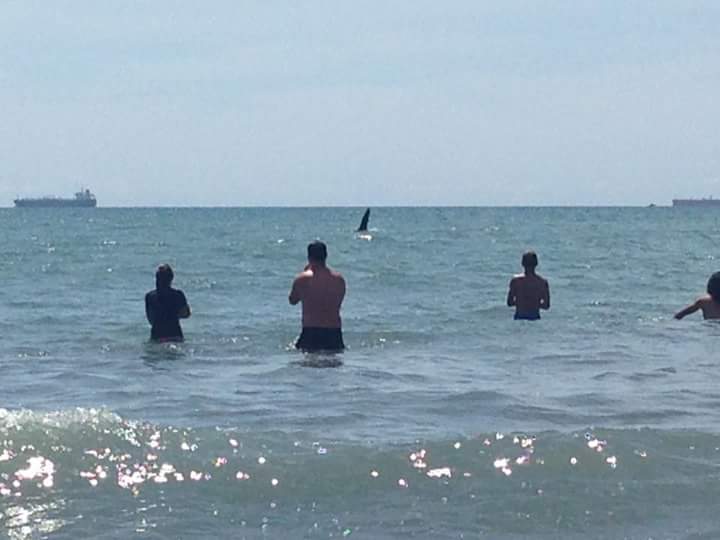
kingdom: Animalia
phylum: Chordata
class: Mammalia
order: Cetacea
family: Delphinidae
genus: Orcinus
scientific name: Orcinus orca
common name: Killer whale
